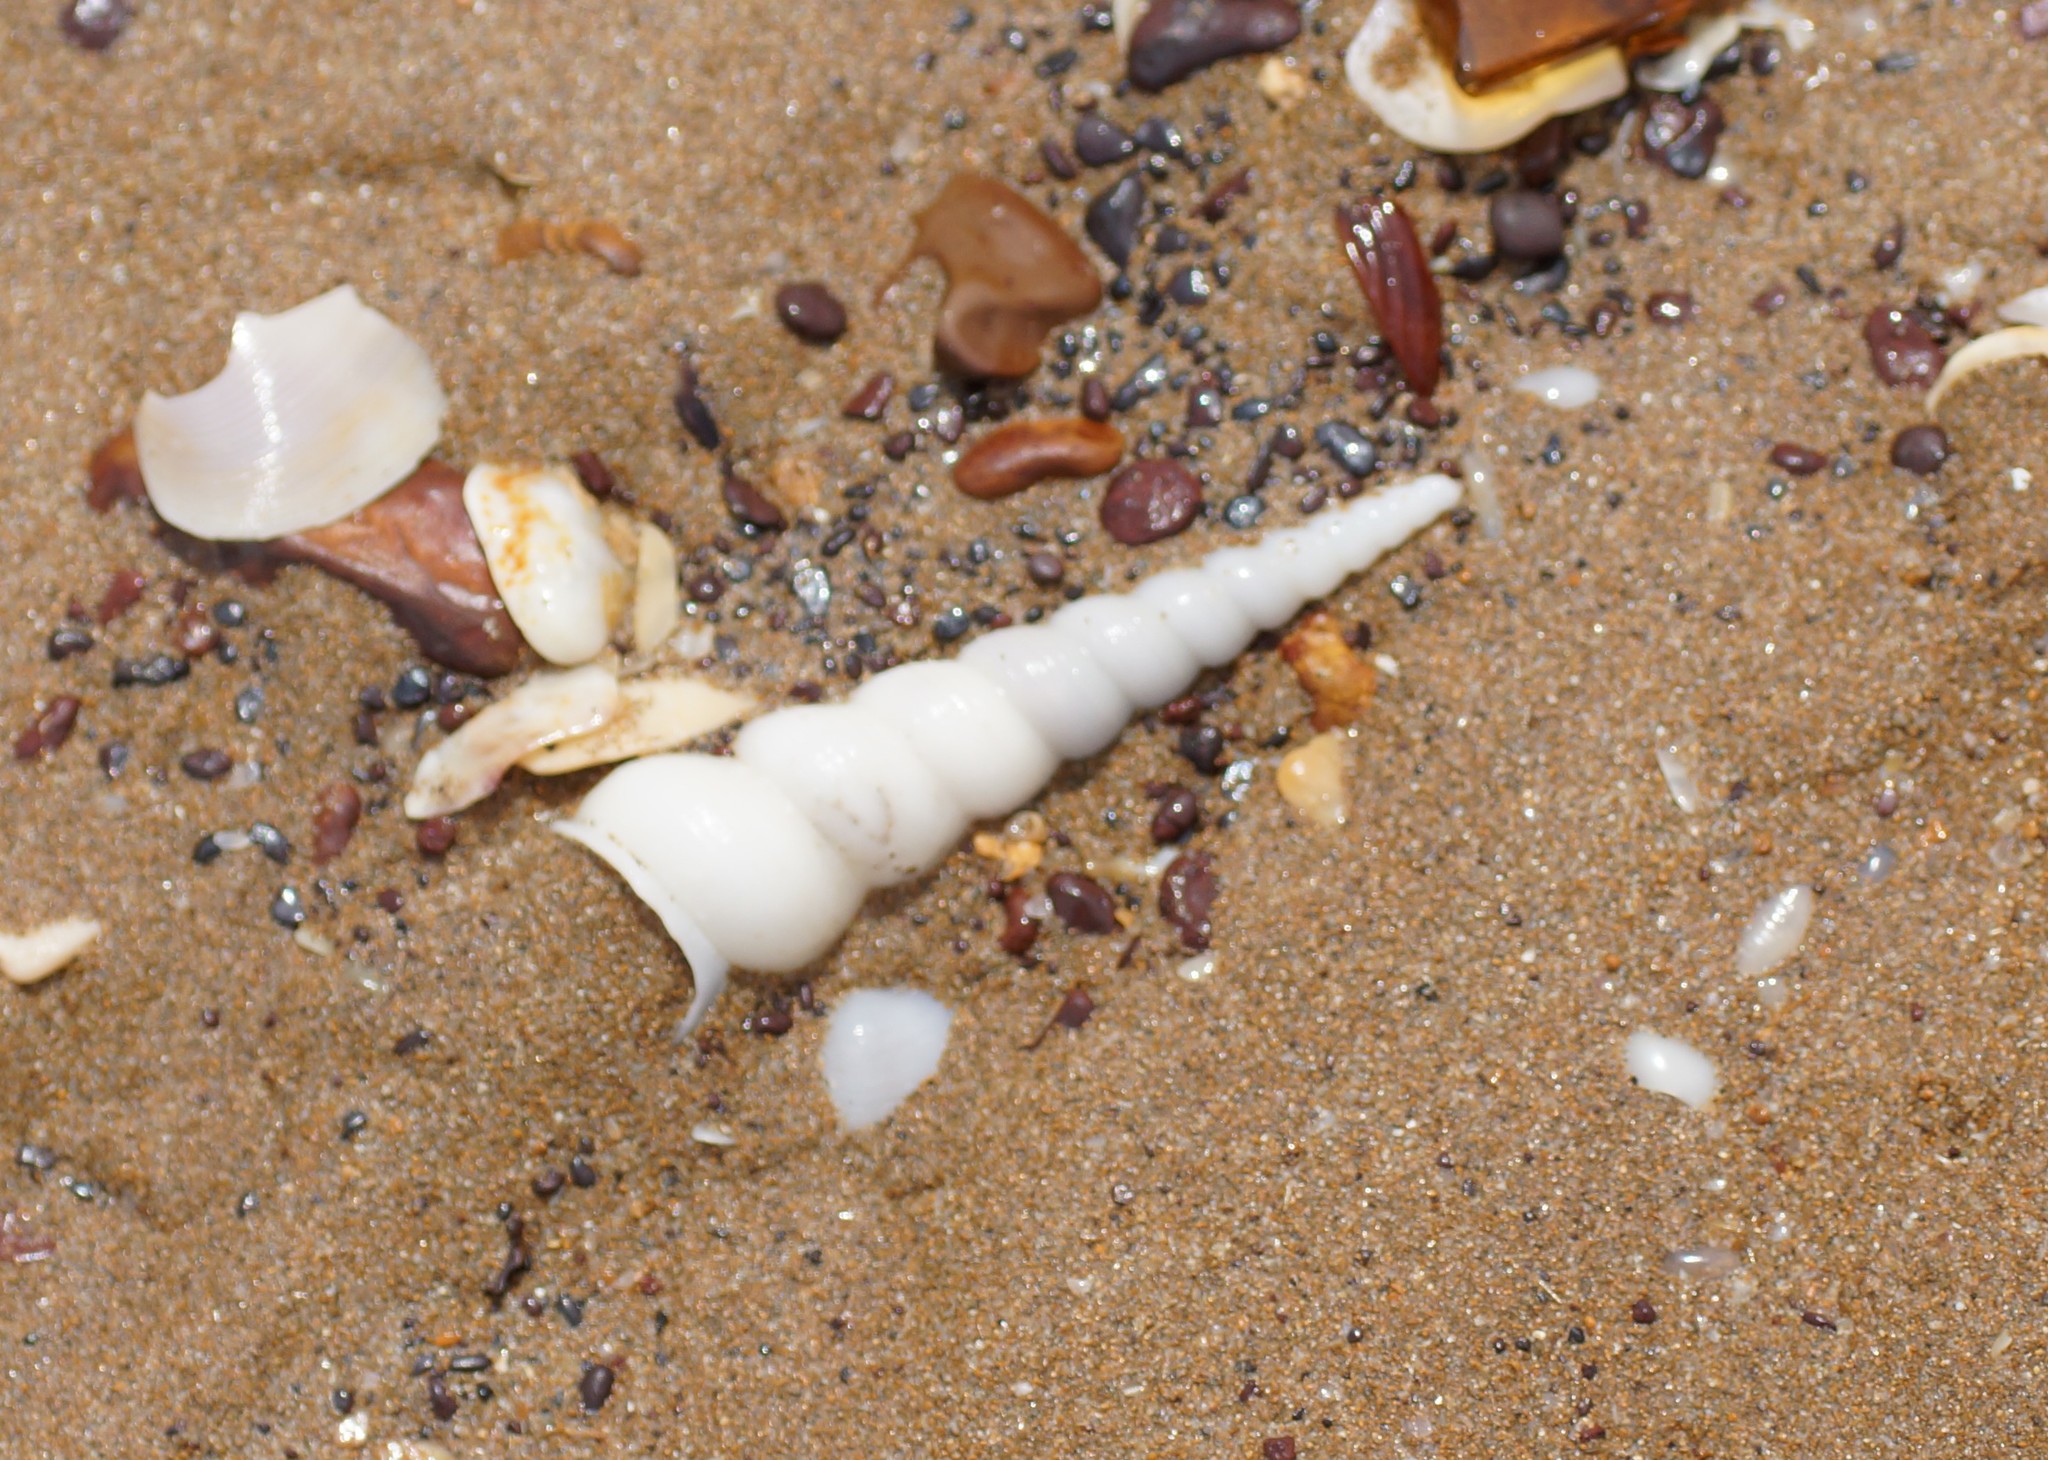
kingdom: Animalia
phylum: Mollusca
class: Gastropoda
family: Turritellidae
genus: Turritella
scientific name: Turritella terebra
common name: Auger screw shell
